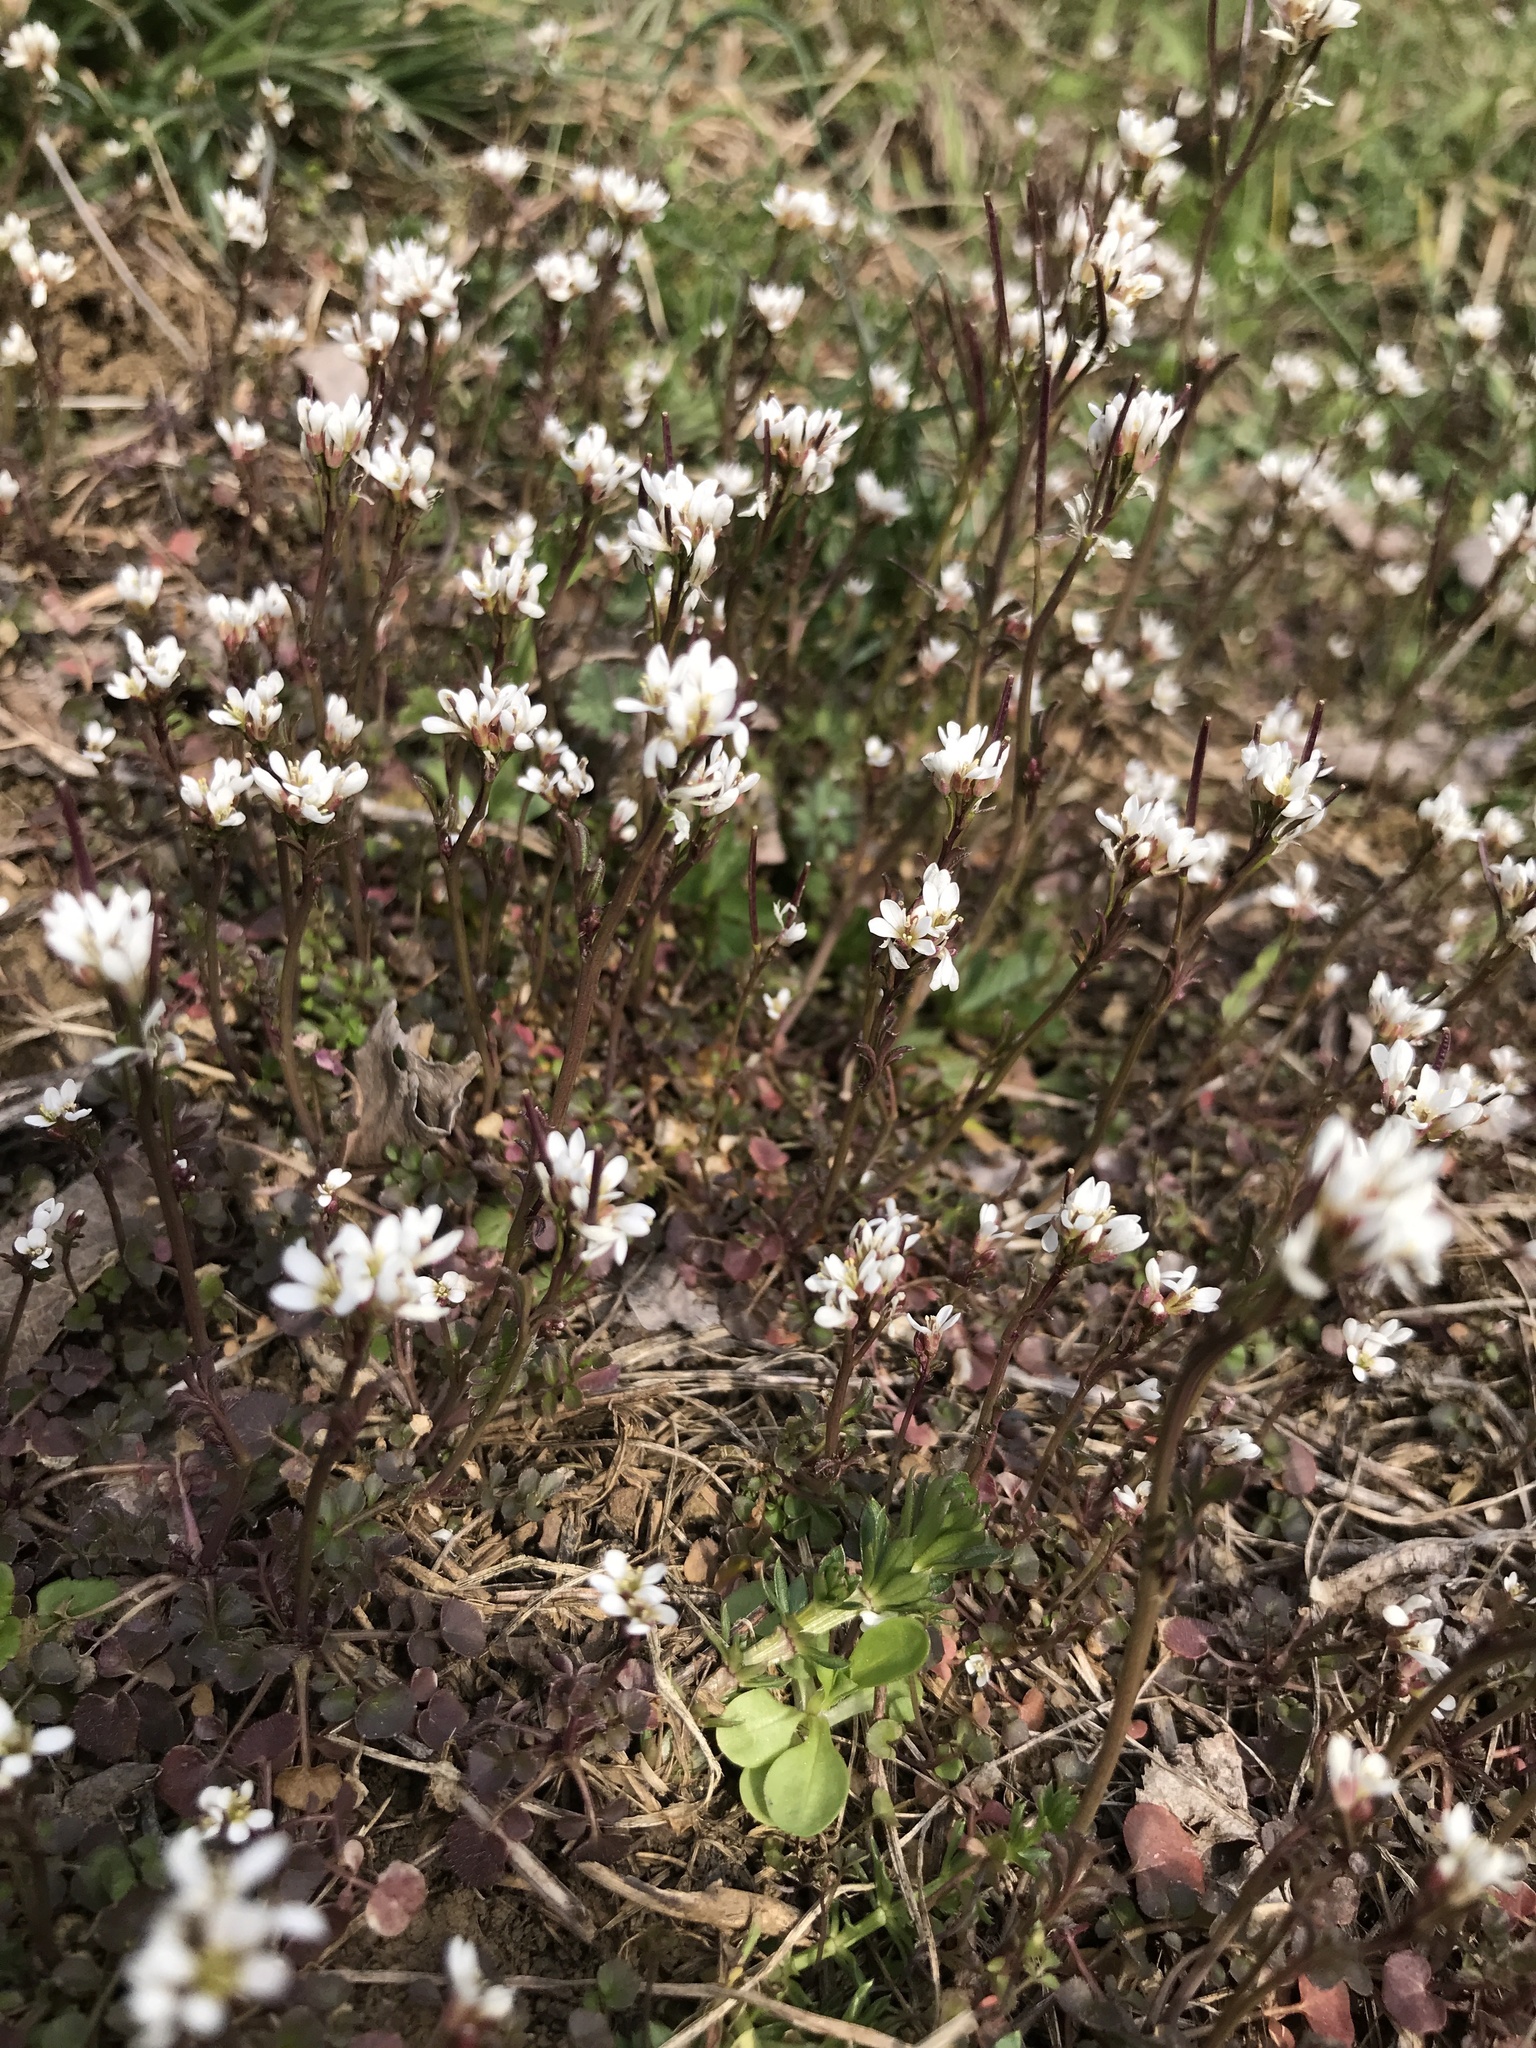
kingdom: Plantae
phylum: Tracheophyta
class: Magnoliopsida
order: Brassicales
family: Brassicaceae
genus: Cardamine
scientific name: Cardamine hirsuta
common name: Hairy bittercress
